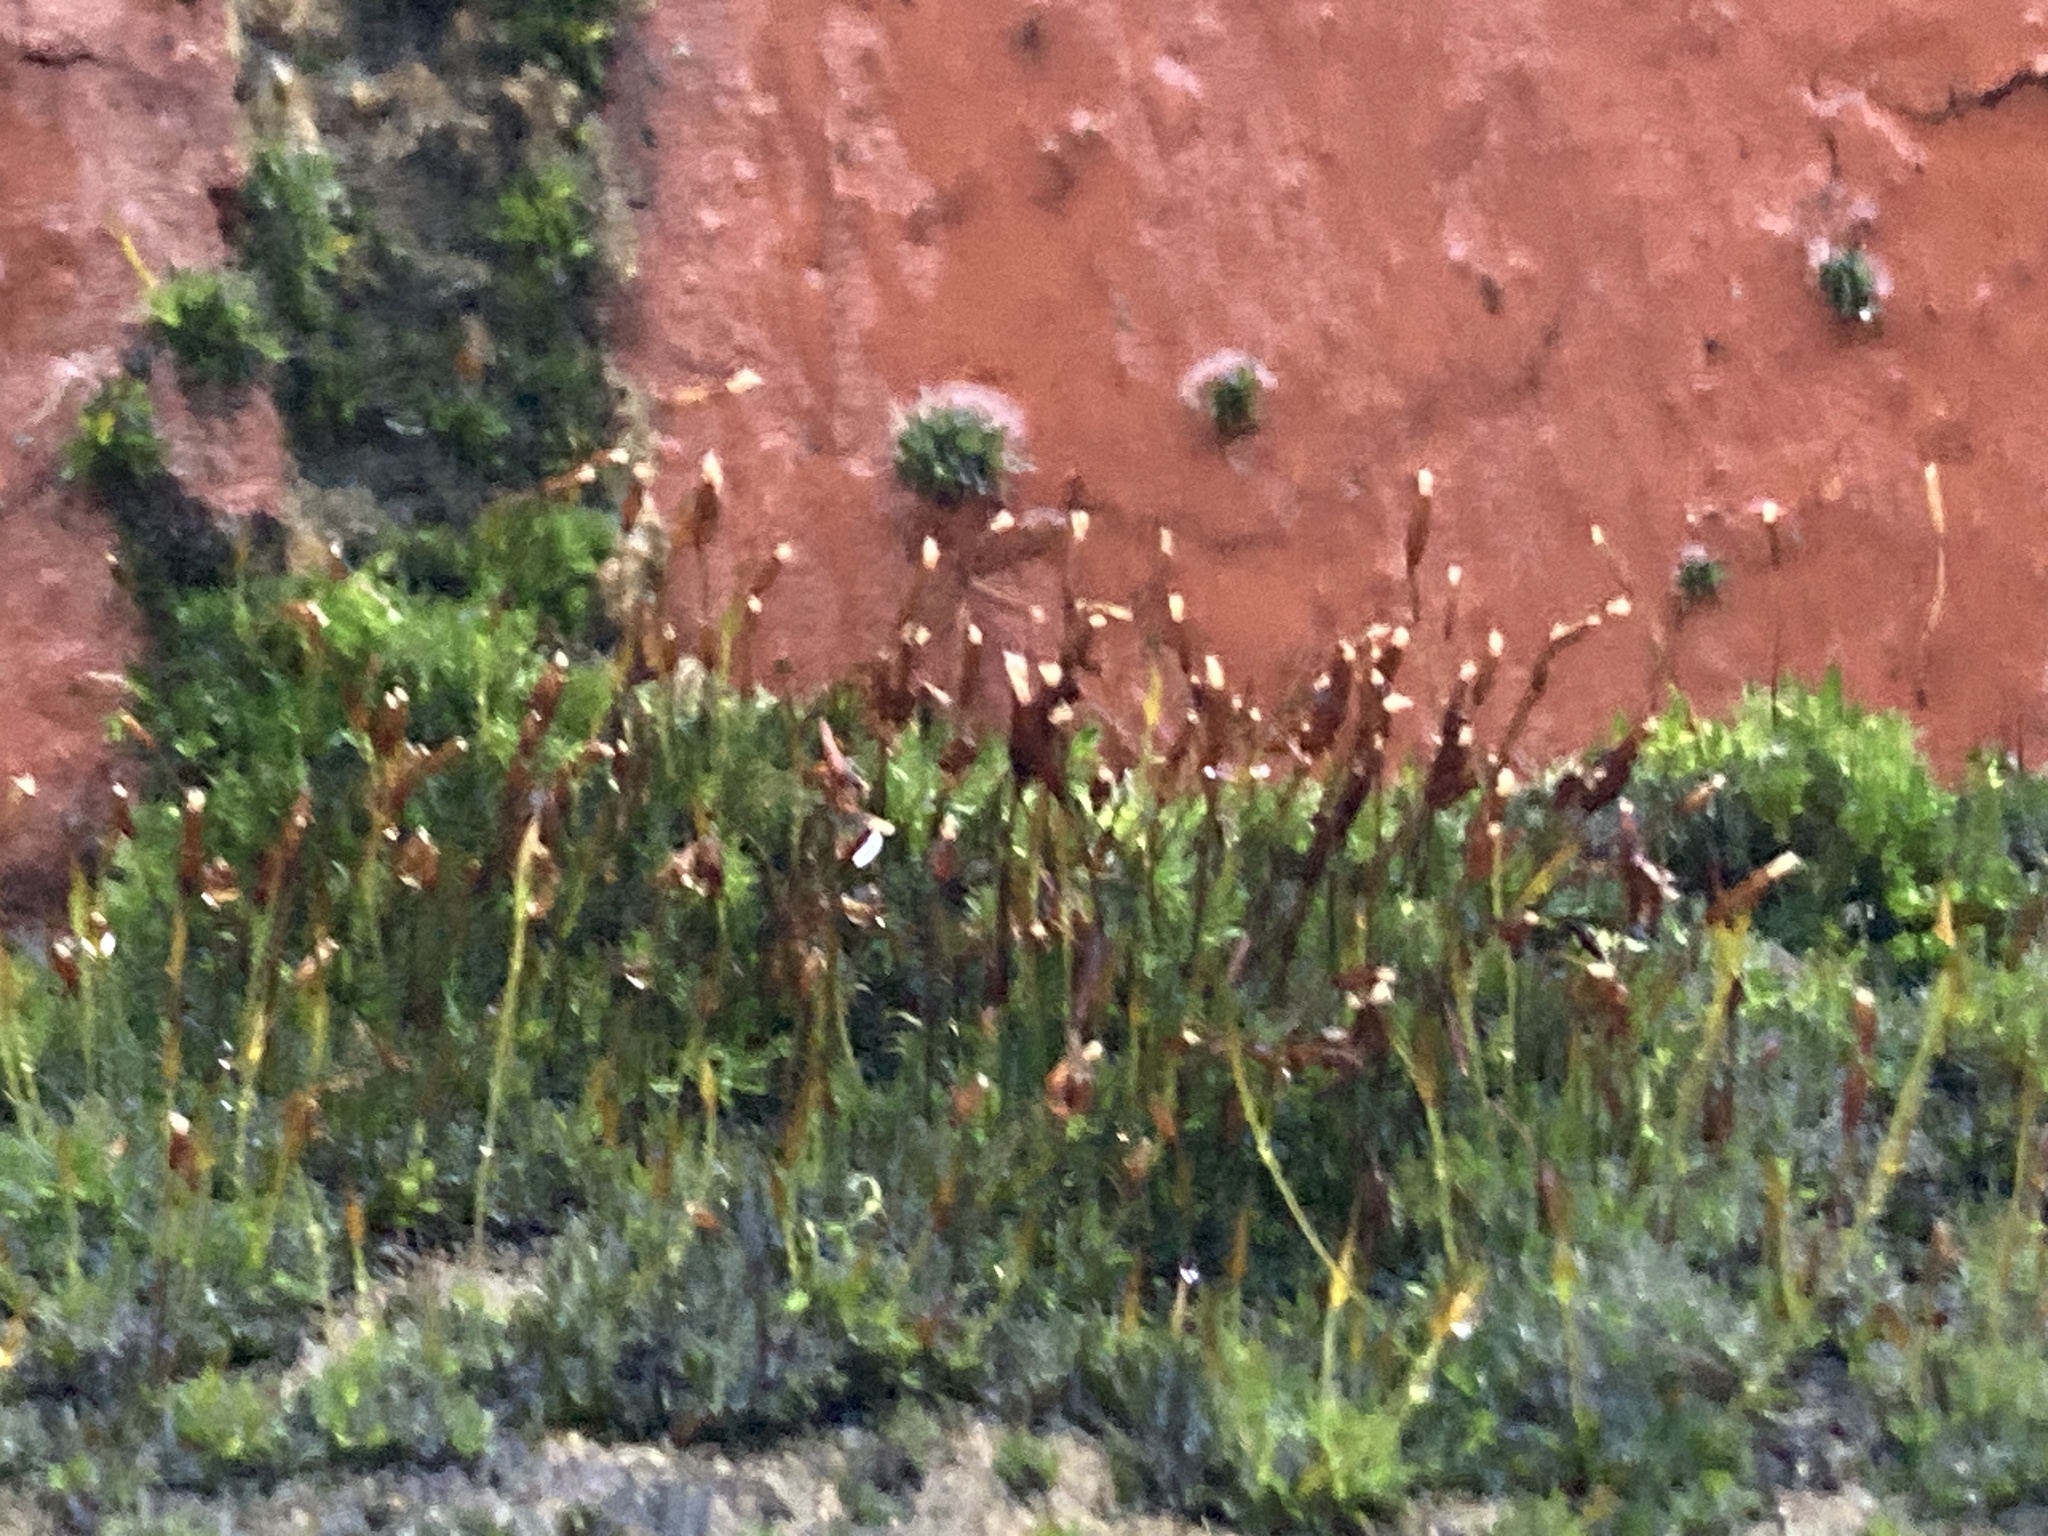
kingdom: Plantae
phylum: Bryophyta
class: Bryopsida
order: Pottiales
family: Pottiaceae
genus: Tortula
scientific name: Tortula muralis
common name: Wall screw-moss
